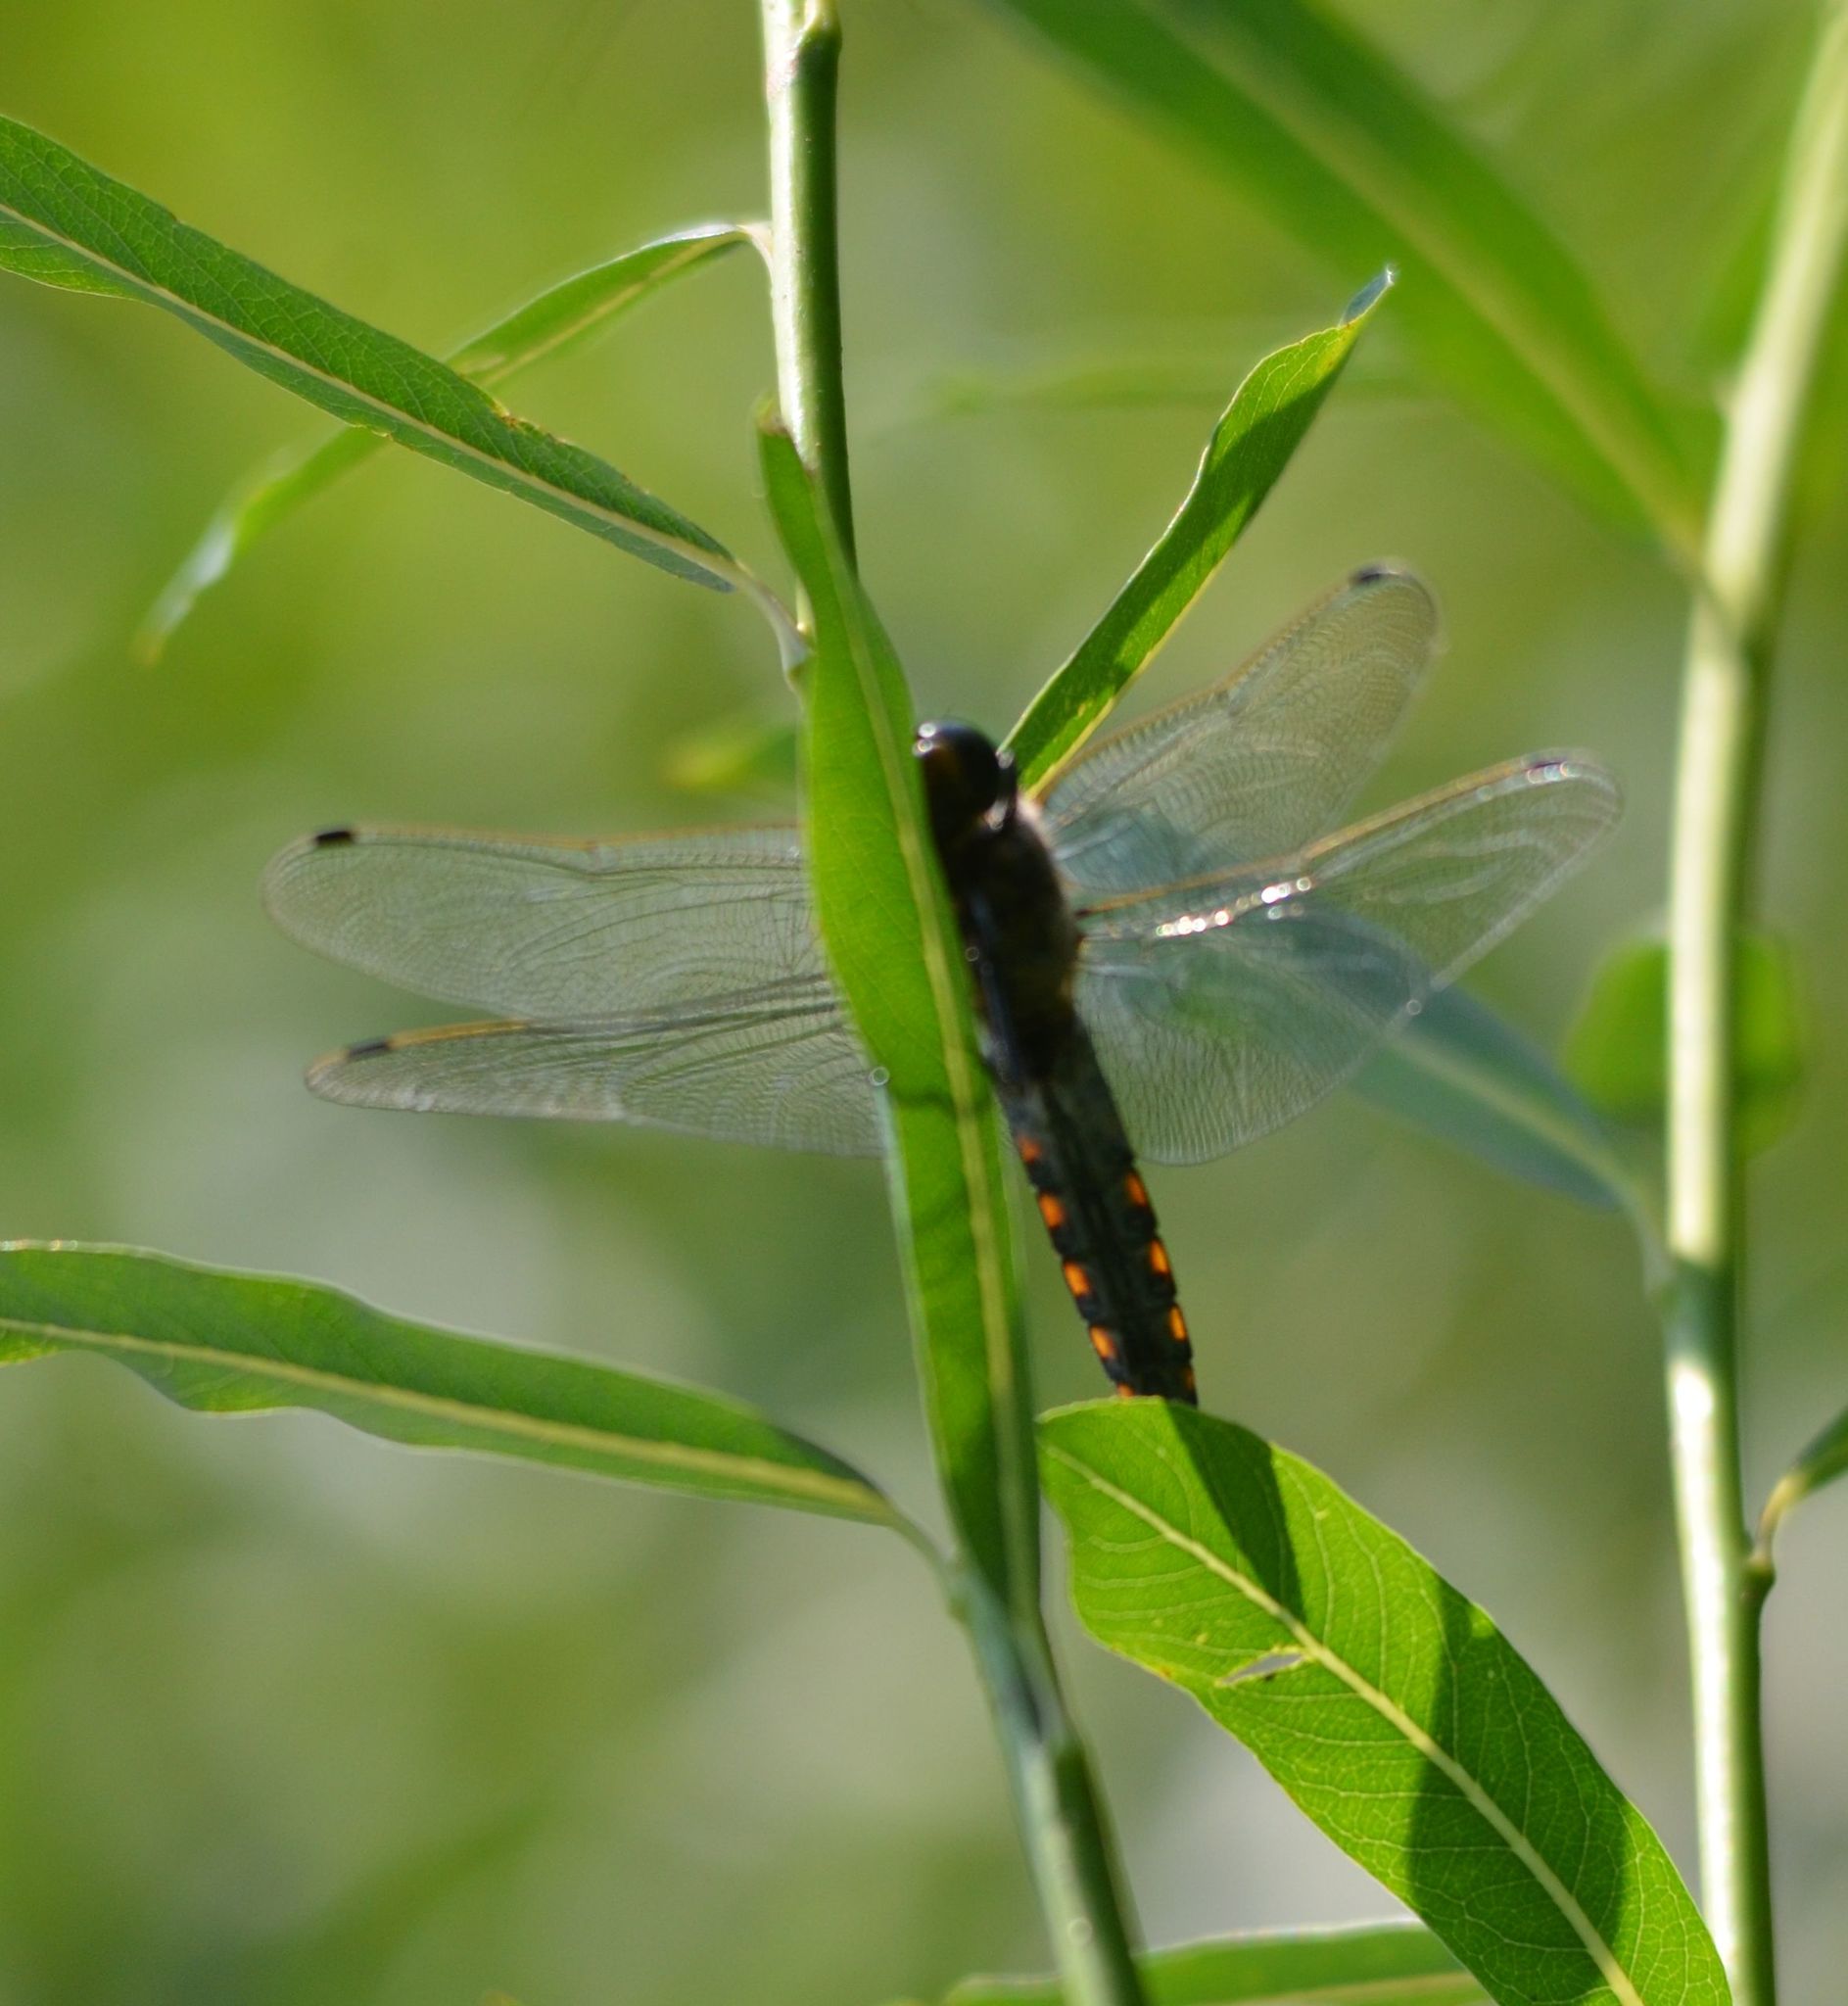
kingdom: Animalia
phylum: Arthropoda
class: Insecta
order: Odonata
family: Libellulidae
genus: Orthetrum
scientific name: Orthetrum cancellatum
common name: Black-tailed skimmer
